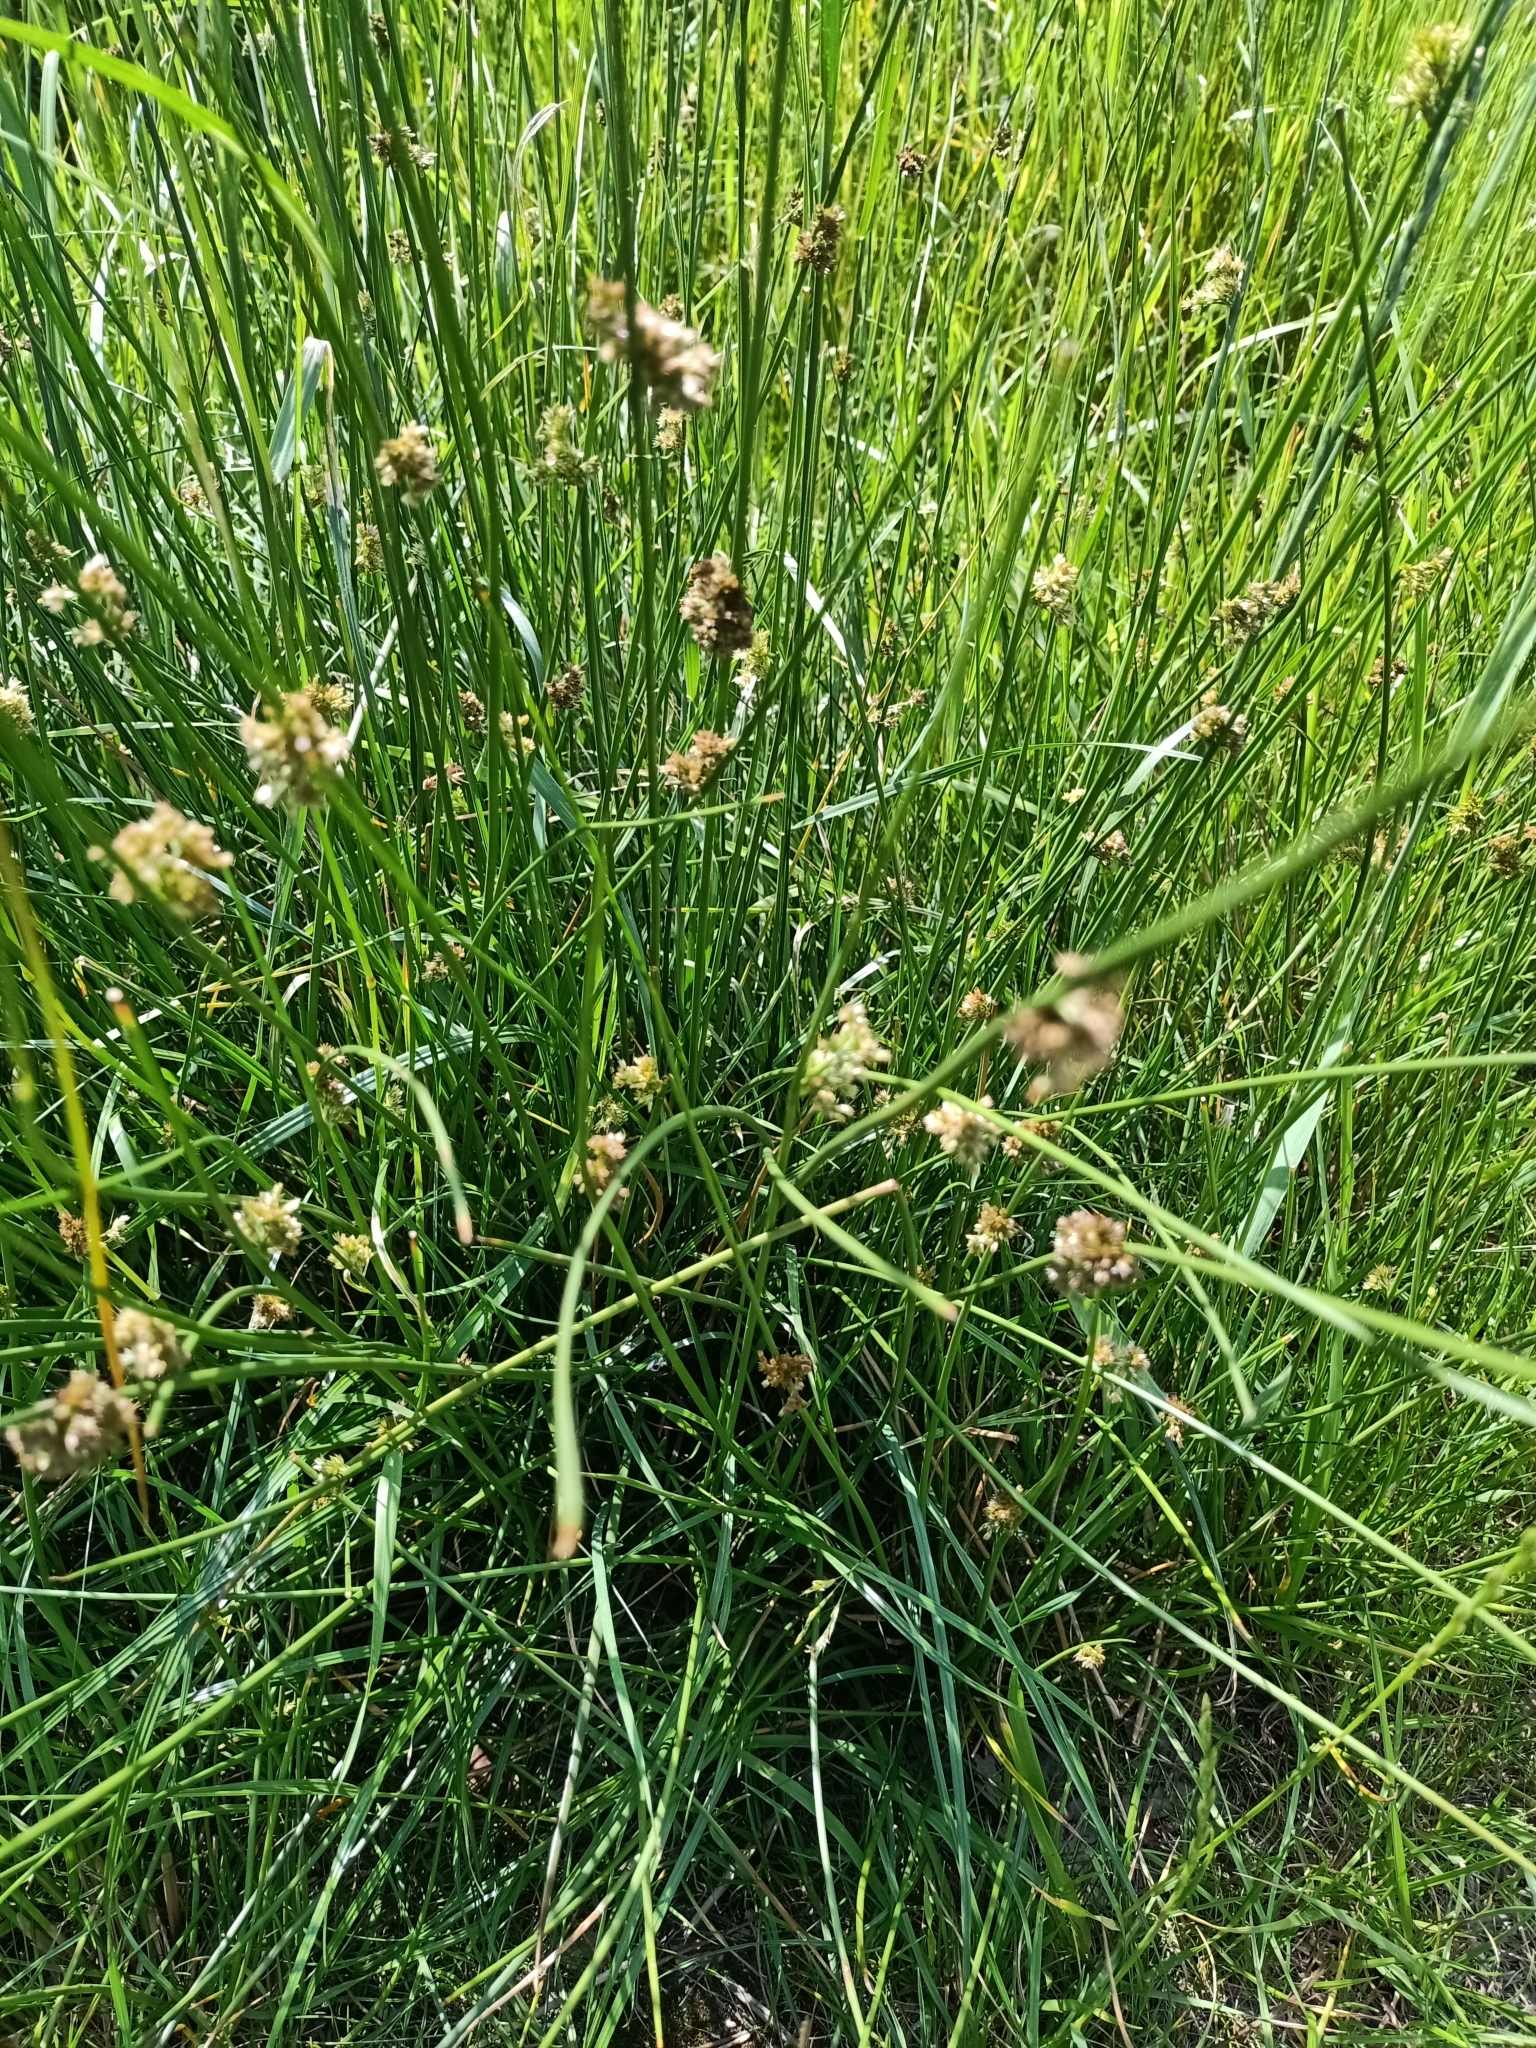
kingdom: Plantae
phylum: Tracheophyta
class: Liliopsida
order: Poales
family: Juncaceae
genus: Juncus
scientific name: Juncus effusus
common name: Soft rush
